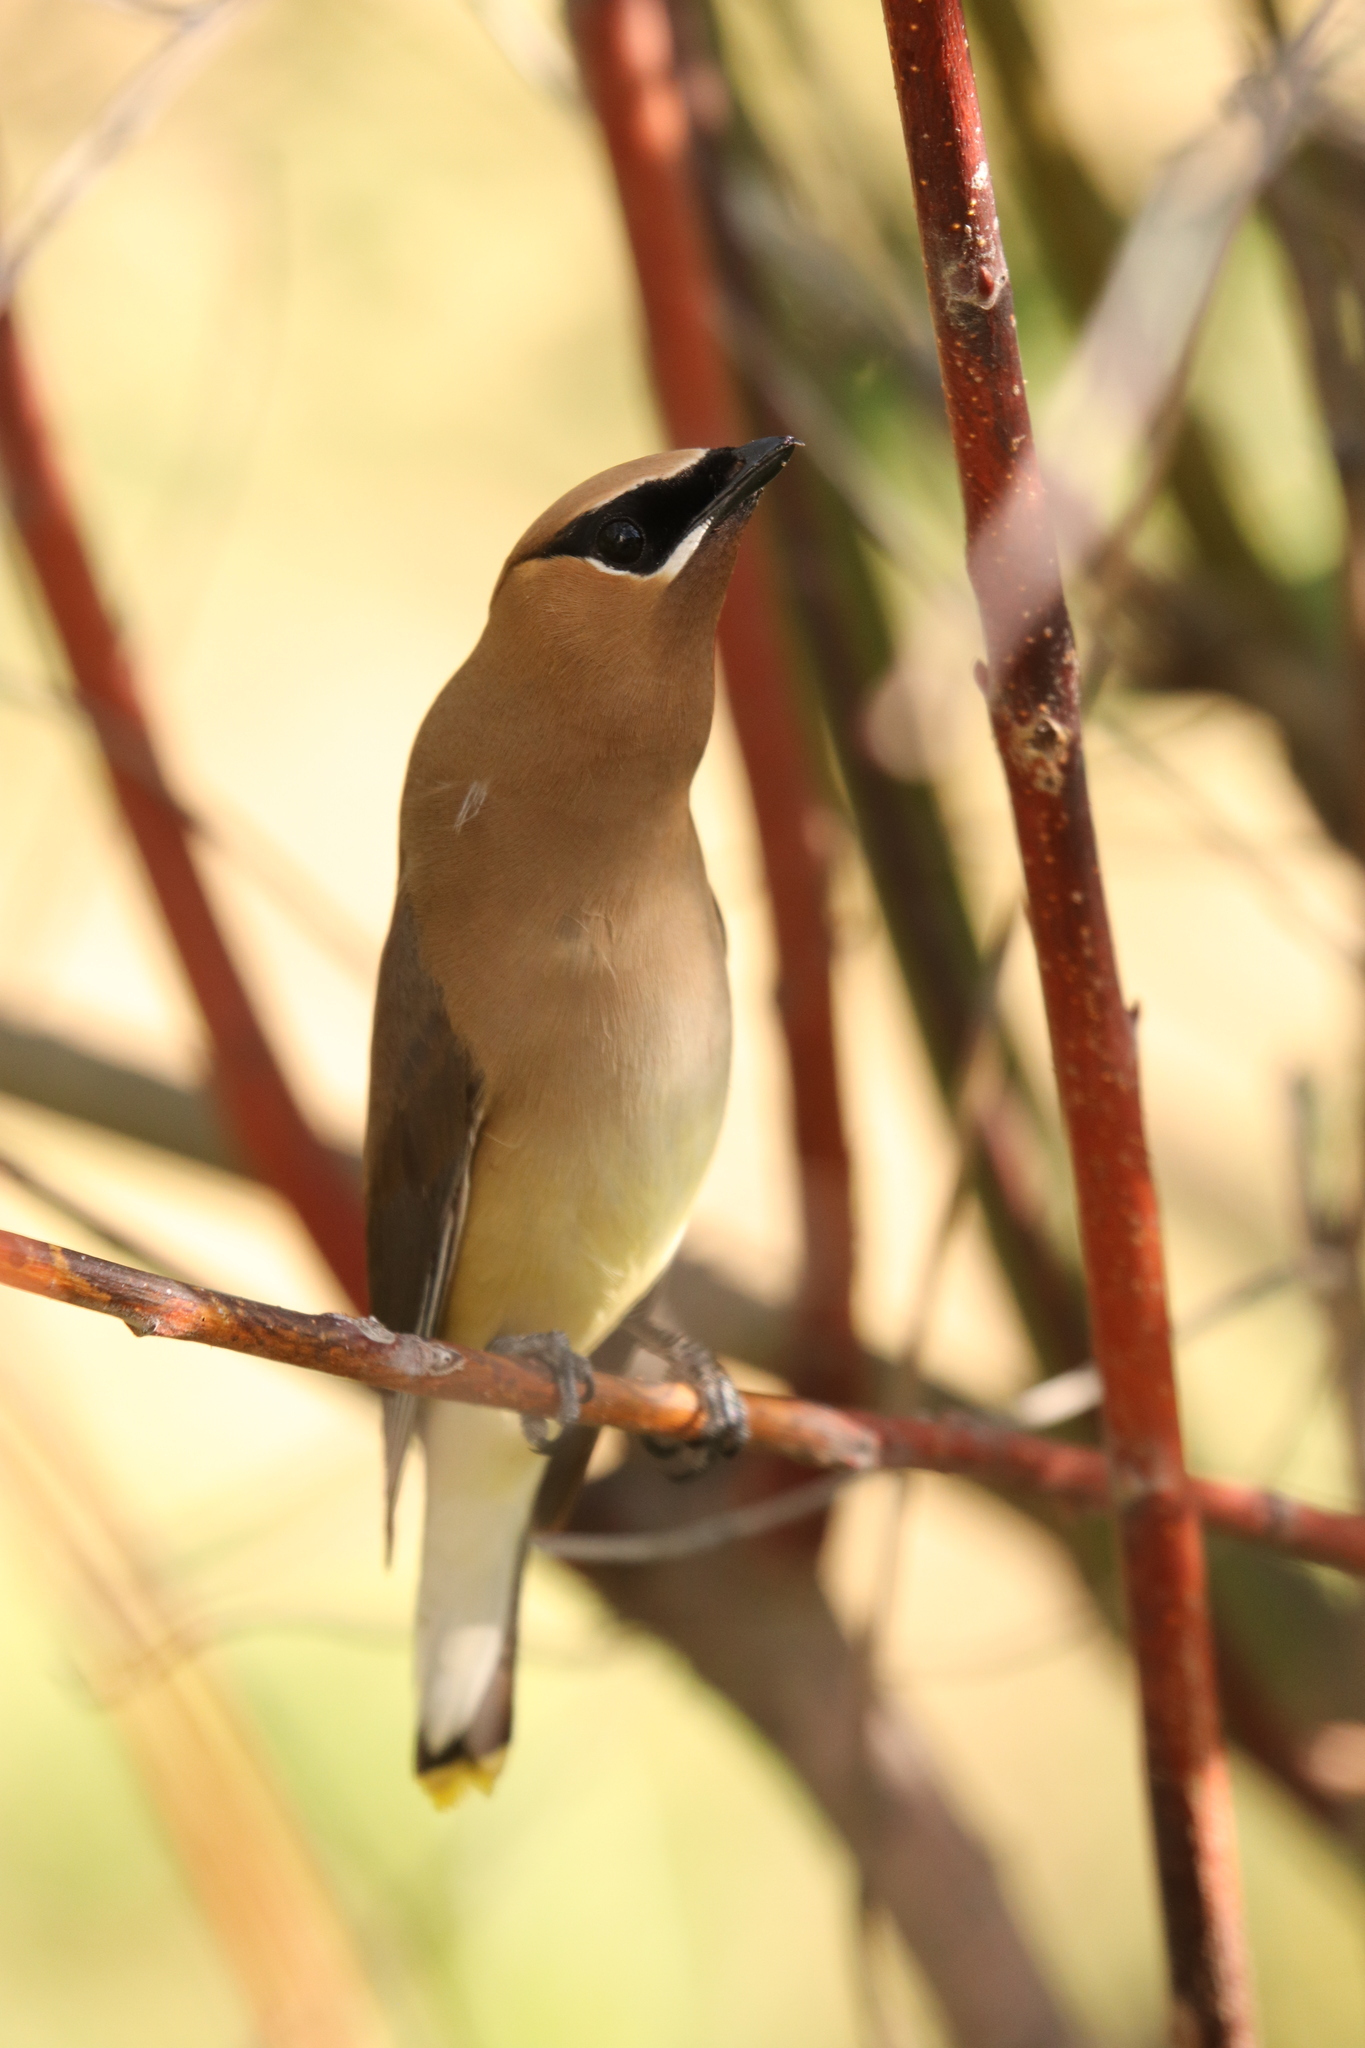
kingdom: Animalia
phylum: Chordata
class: Aves
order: Passeriformes
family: Bombycillidae
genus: Bombycilla
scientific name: Bombycilla cedrorum
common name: Cedar waxwing
